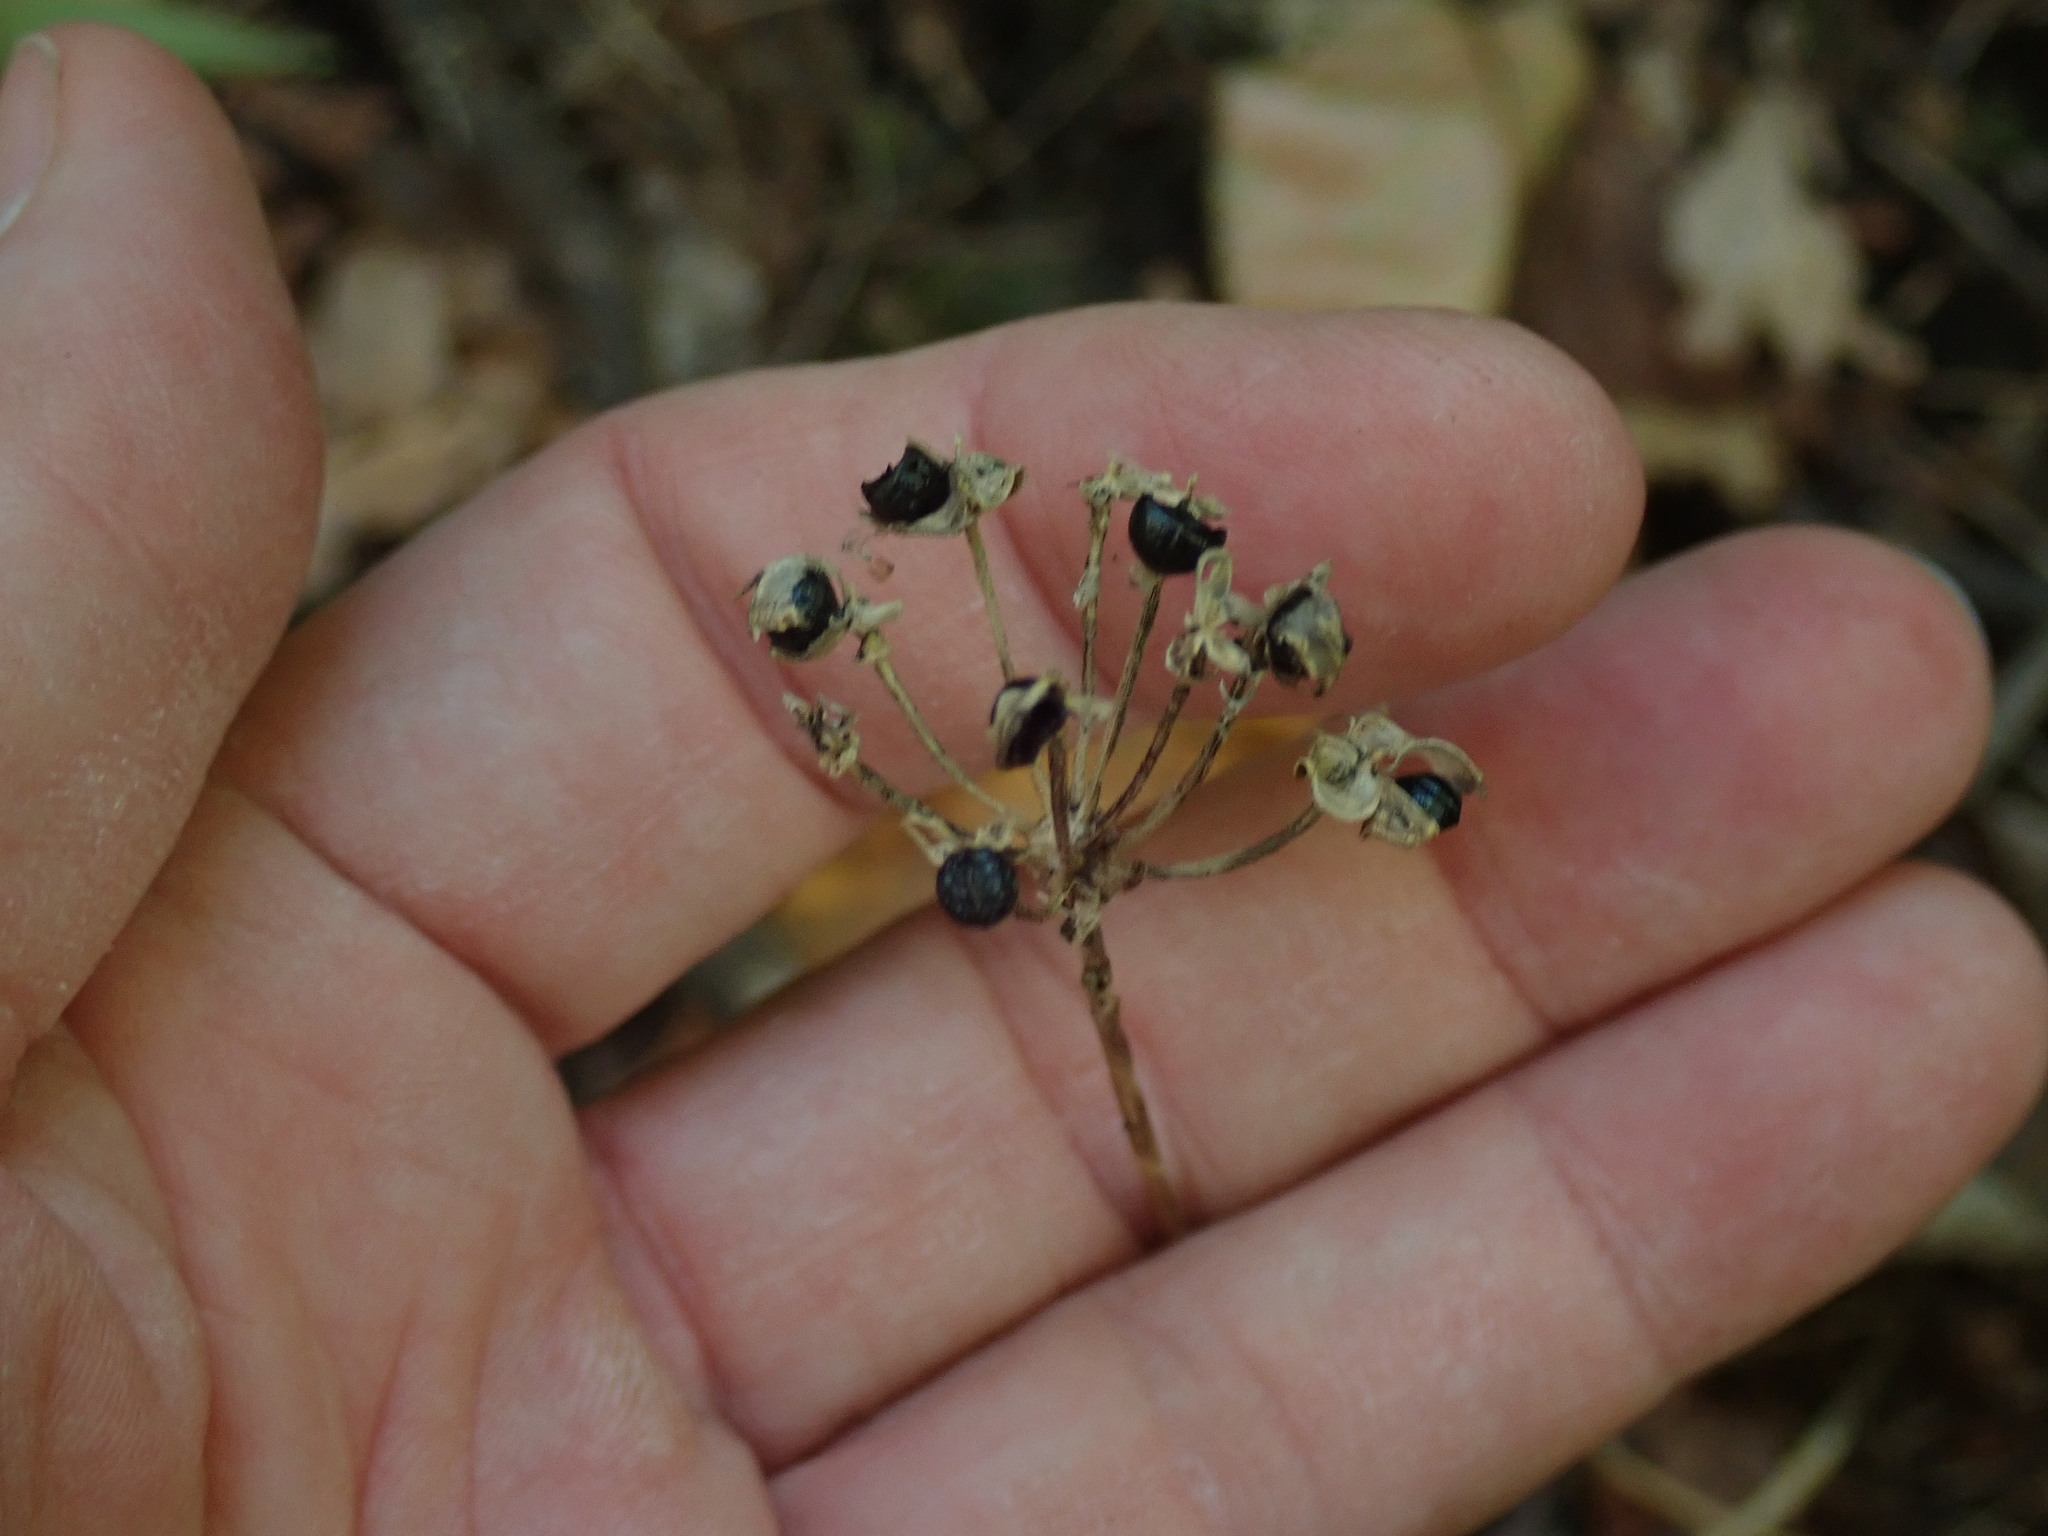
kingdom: Plantae
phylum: Tracheophyta
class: Liliopsida
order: Asparagales
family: Amaryllidaceae
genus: Allium
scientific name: Allium tricoccum
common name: Ramp
